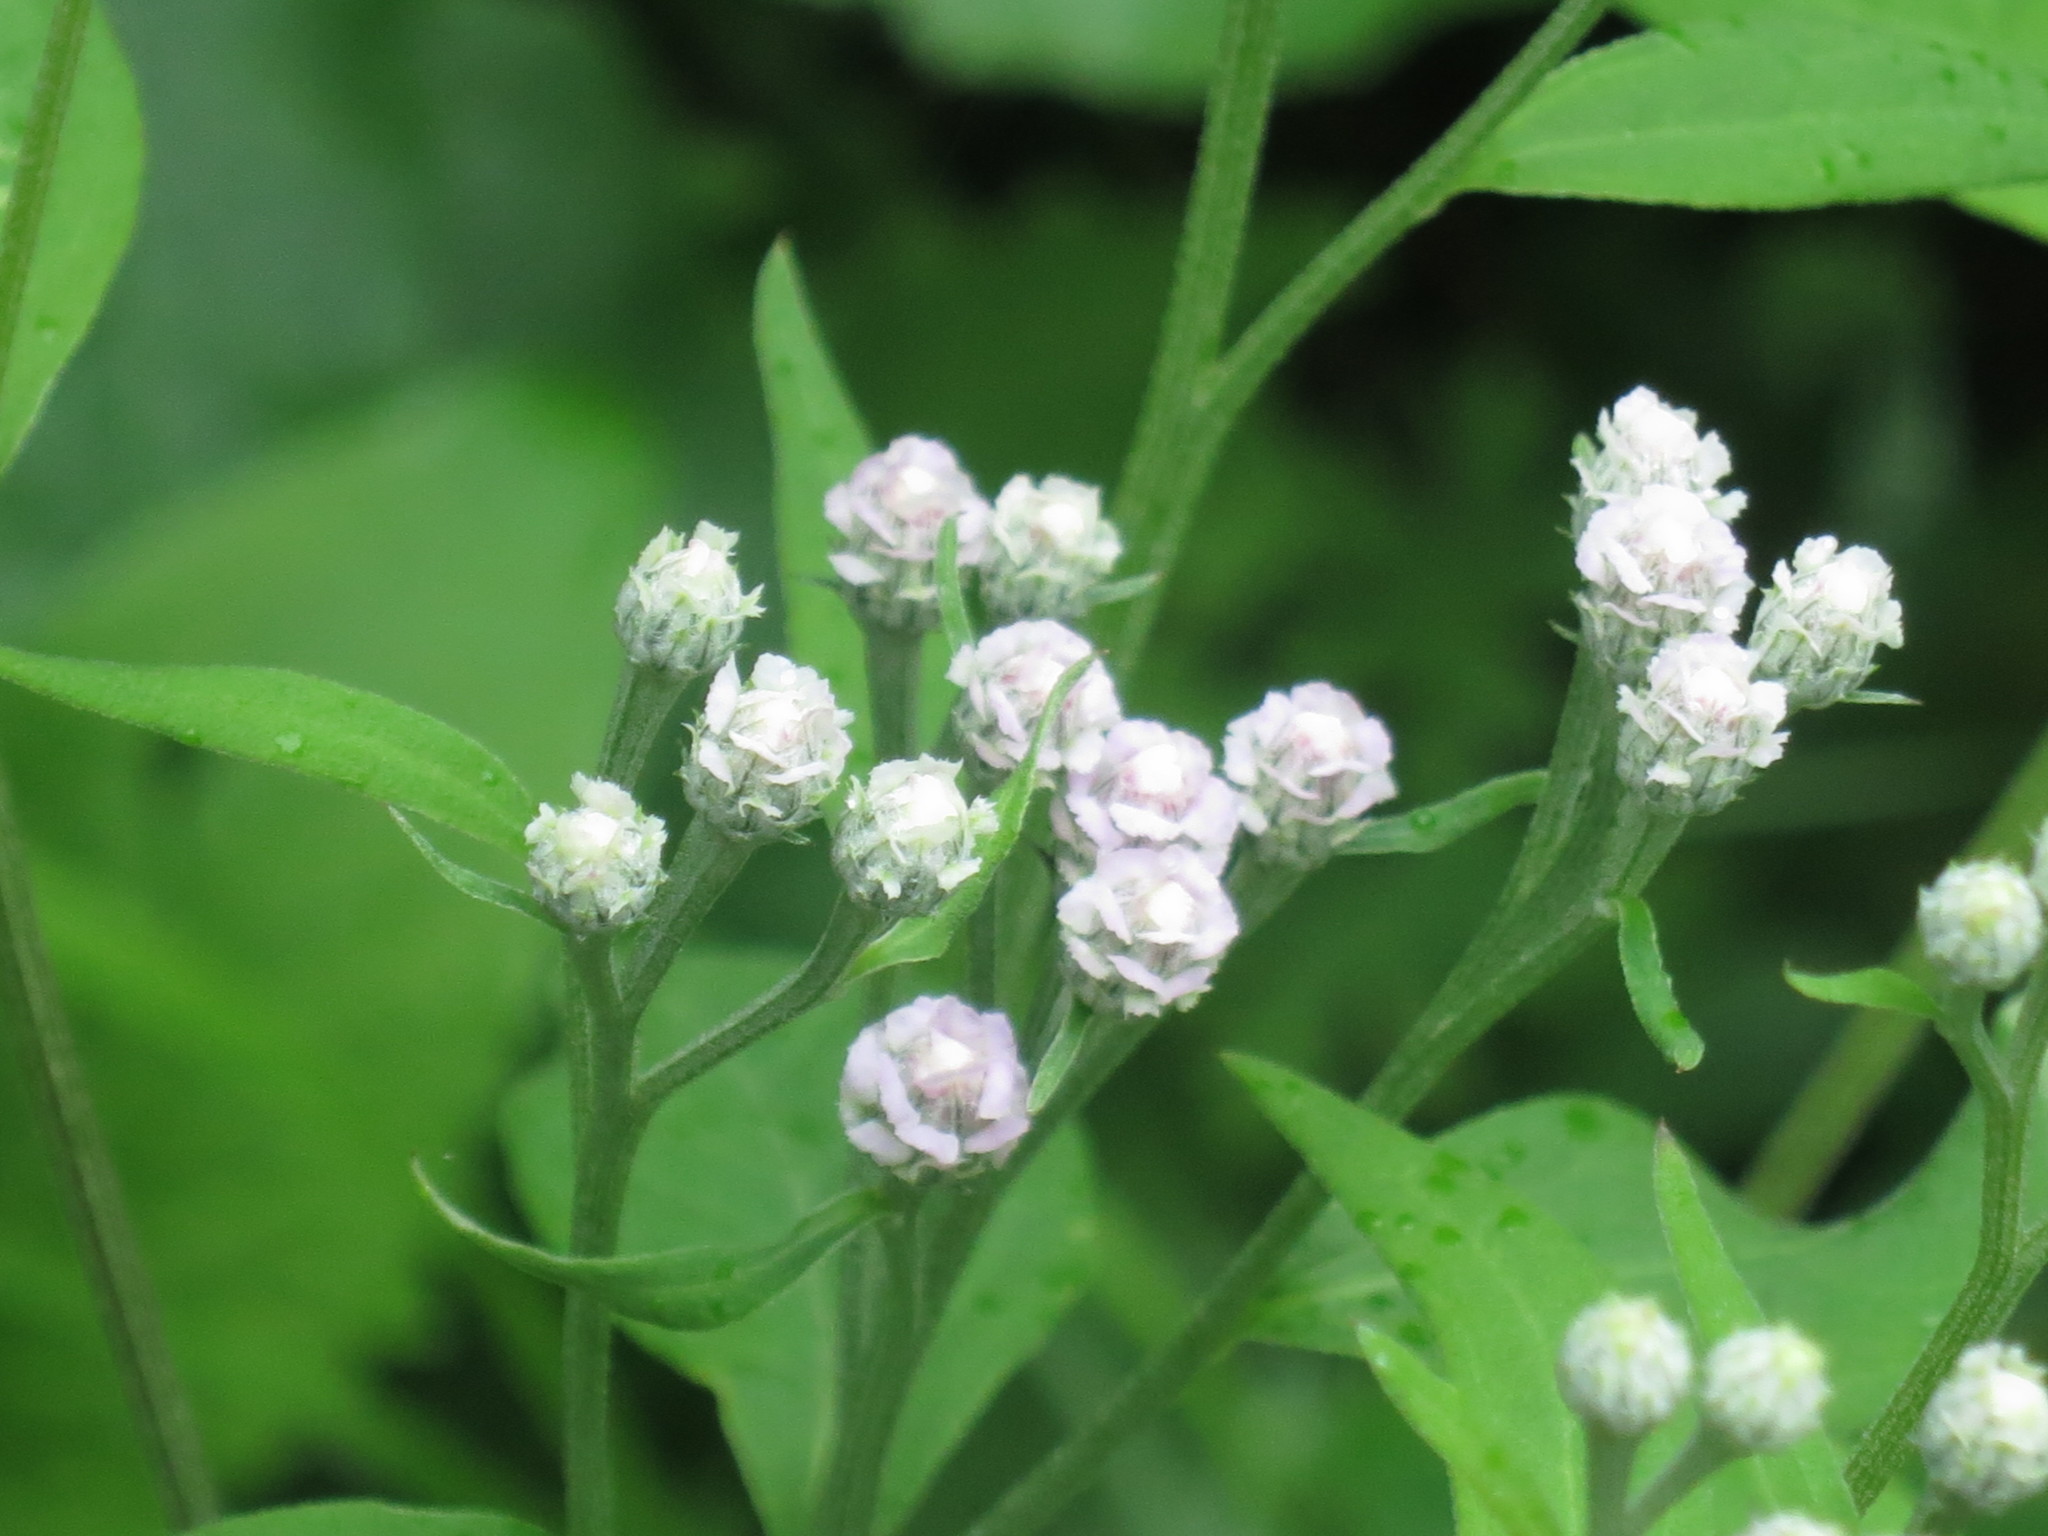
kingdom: Plantae
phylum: Tracheophyta
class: Magnoliopsida
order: Asterales
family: Asteraceae
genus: Saussurea
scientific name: Saussurea pulchella
